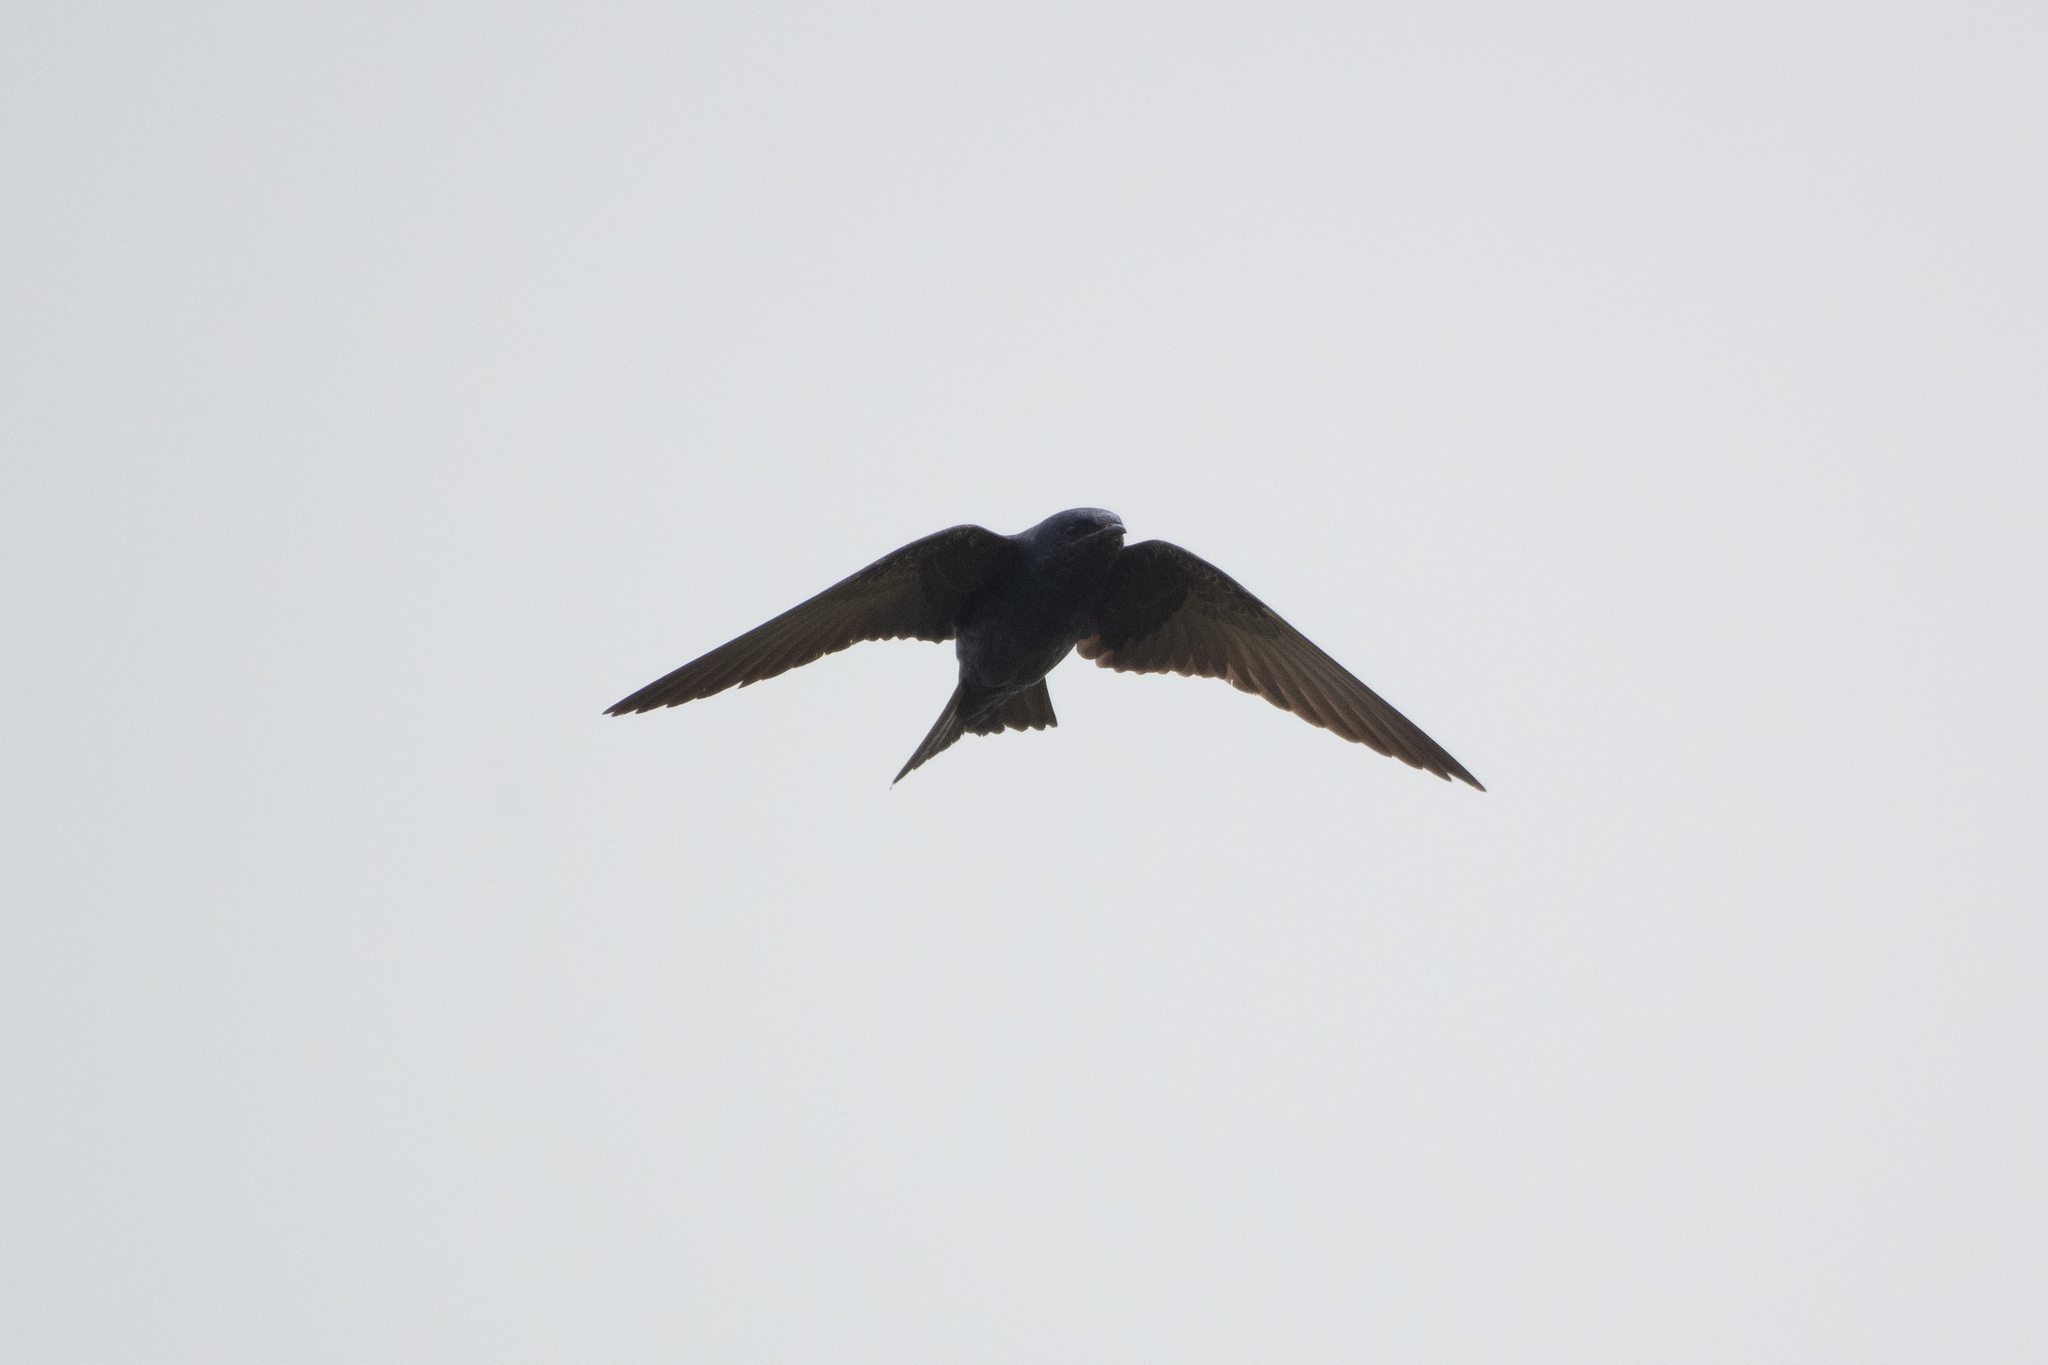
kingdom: Animalia
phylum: Chordata
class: Aves
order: Passeriformes
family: Hirundinidae
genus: Progne
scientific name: Progne subis
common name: Purple martin
